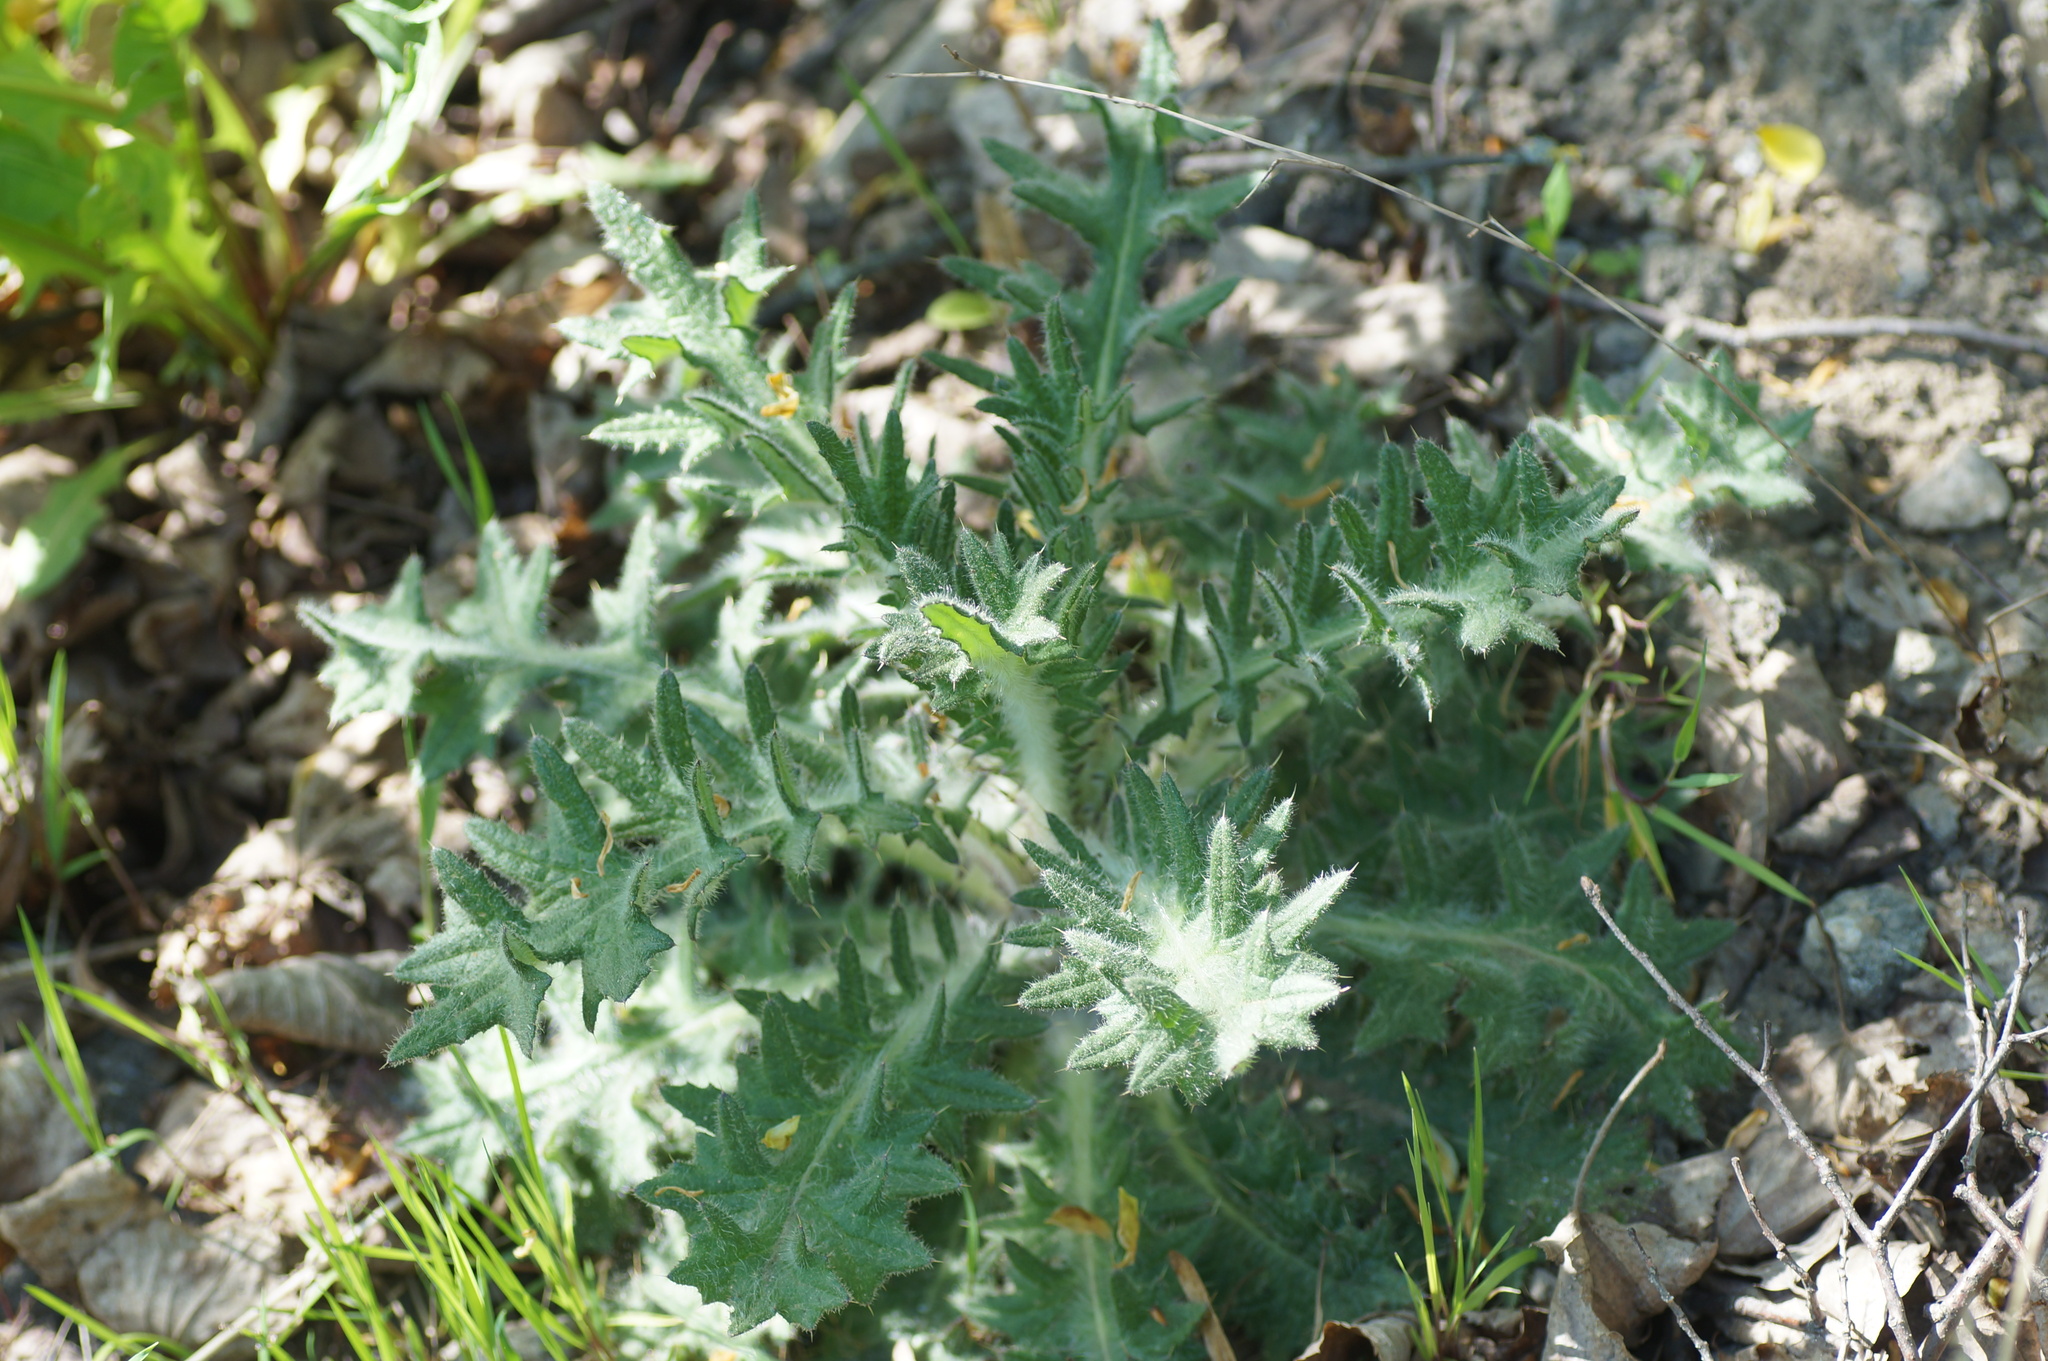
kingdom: Plantae
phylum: Tracheophyta
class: Magnoliopsida
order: Asterales
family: Asteraceae
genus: Cirsium
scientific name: Cirsium vulgare
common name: Bull thistle
